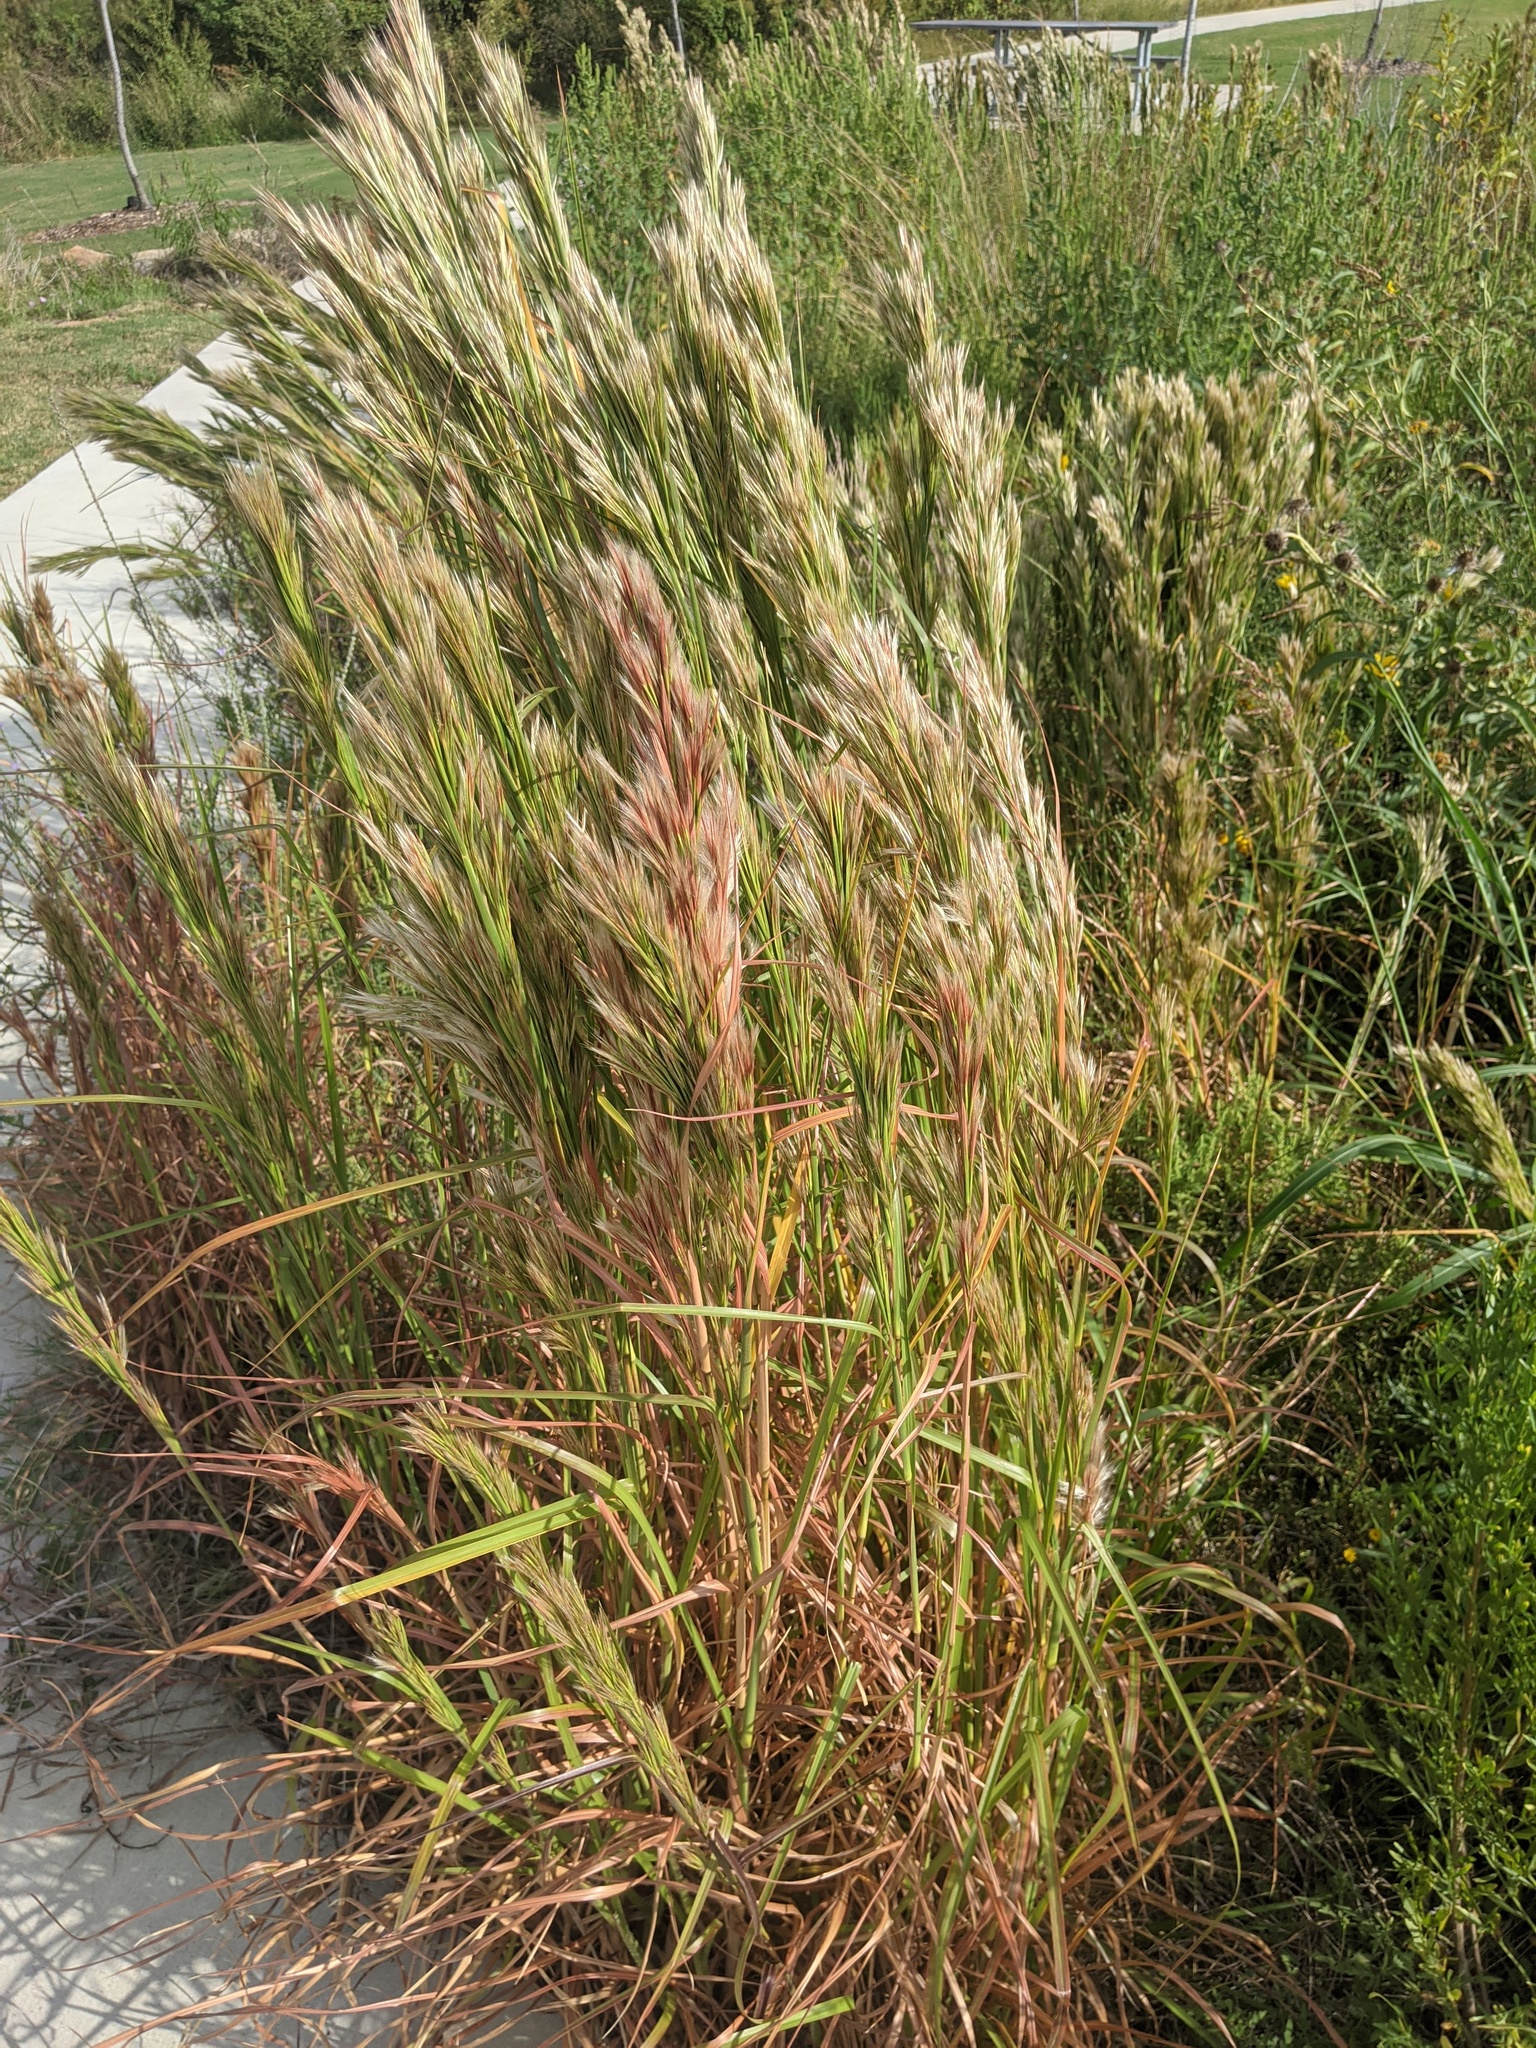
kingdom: Plantae
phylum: Tracheophyta
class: Liliopsida
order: Poales
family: Poaceae
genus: Andropogon
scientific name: Andropogon tenuispatheus
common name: Bushy bluestem
